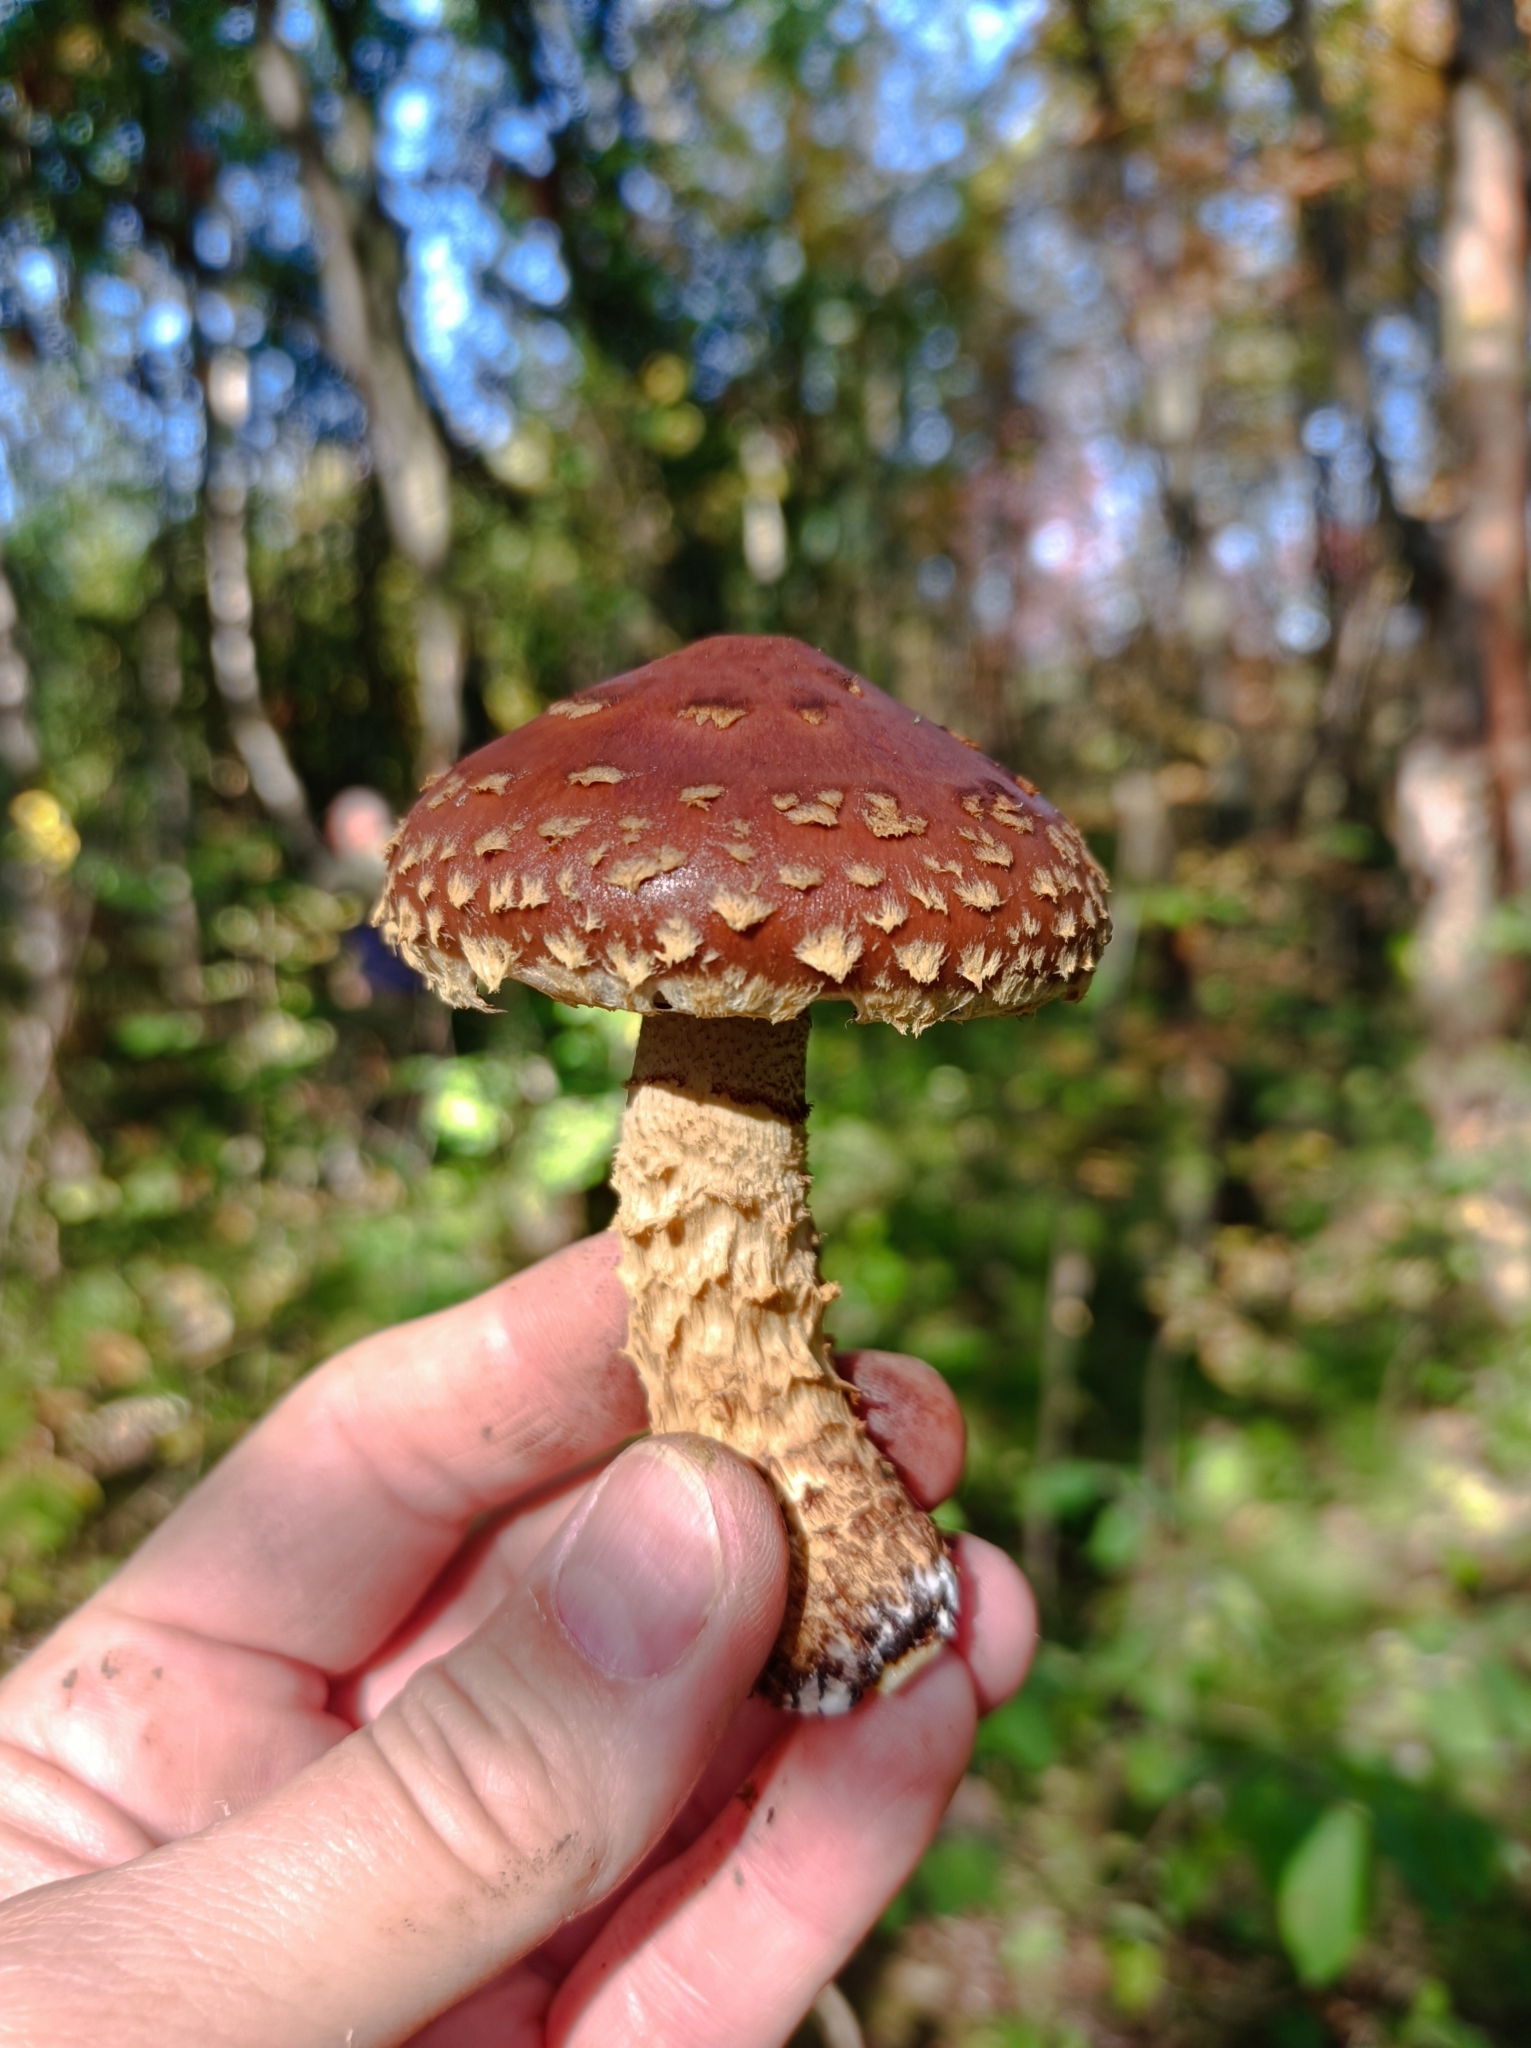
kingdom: Fungi
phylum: Basidiomycota
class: Agaricomycetes
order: Agaricales
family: Tubariaceae
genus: Hemistropharia
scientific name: Hemistropharia albocrenulata
